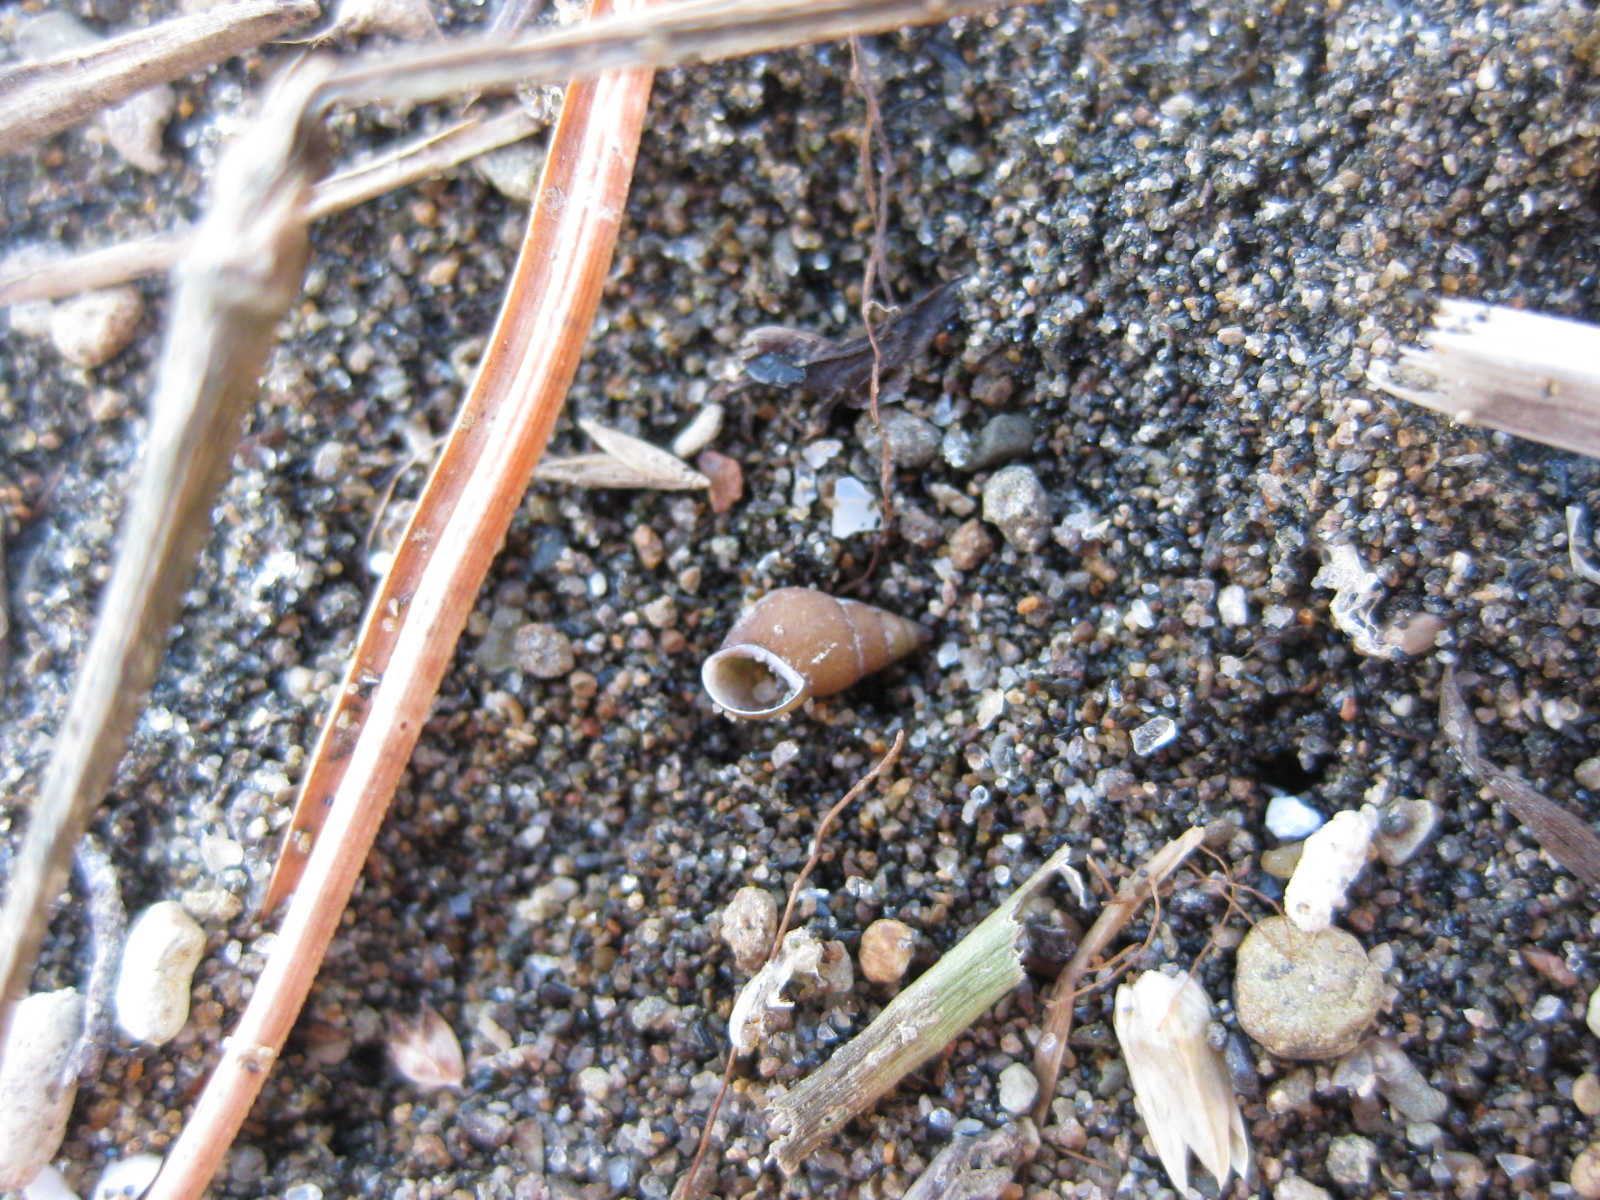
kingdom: Animalia
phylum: Mollusca
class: Gastropoda
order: Littorinimorpha
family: Tateidae
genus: Potamopyrgus
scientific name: Potamopyrgus estuarinus
